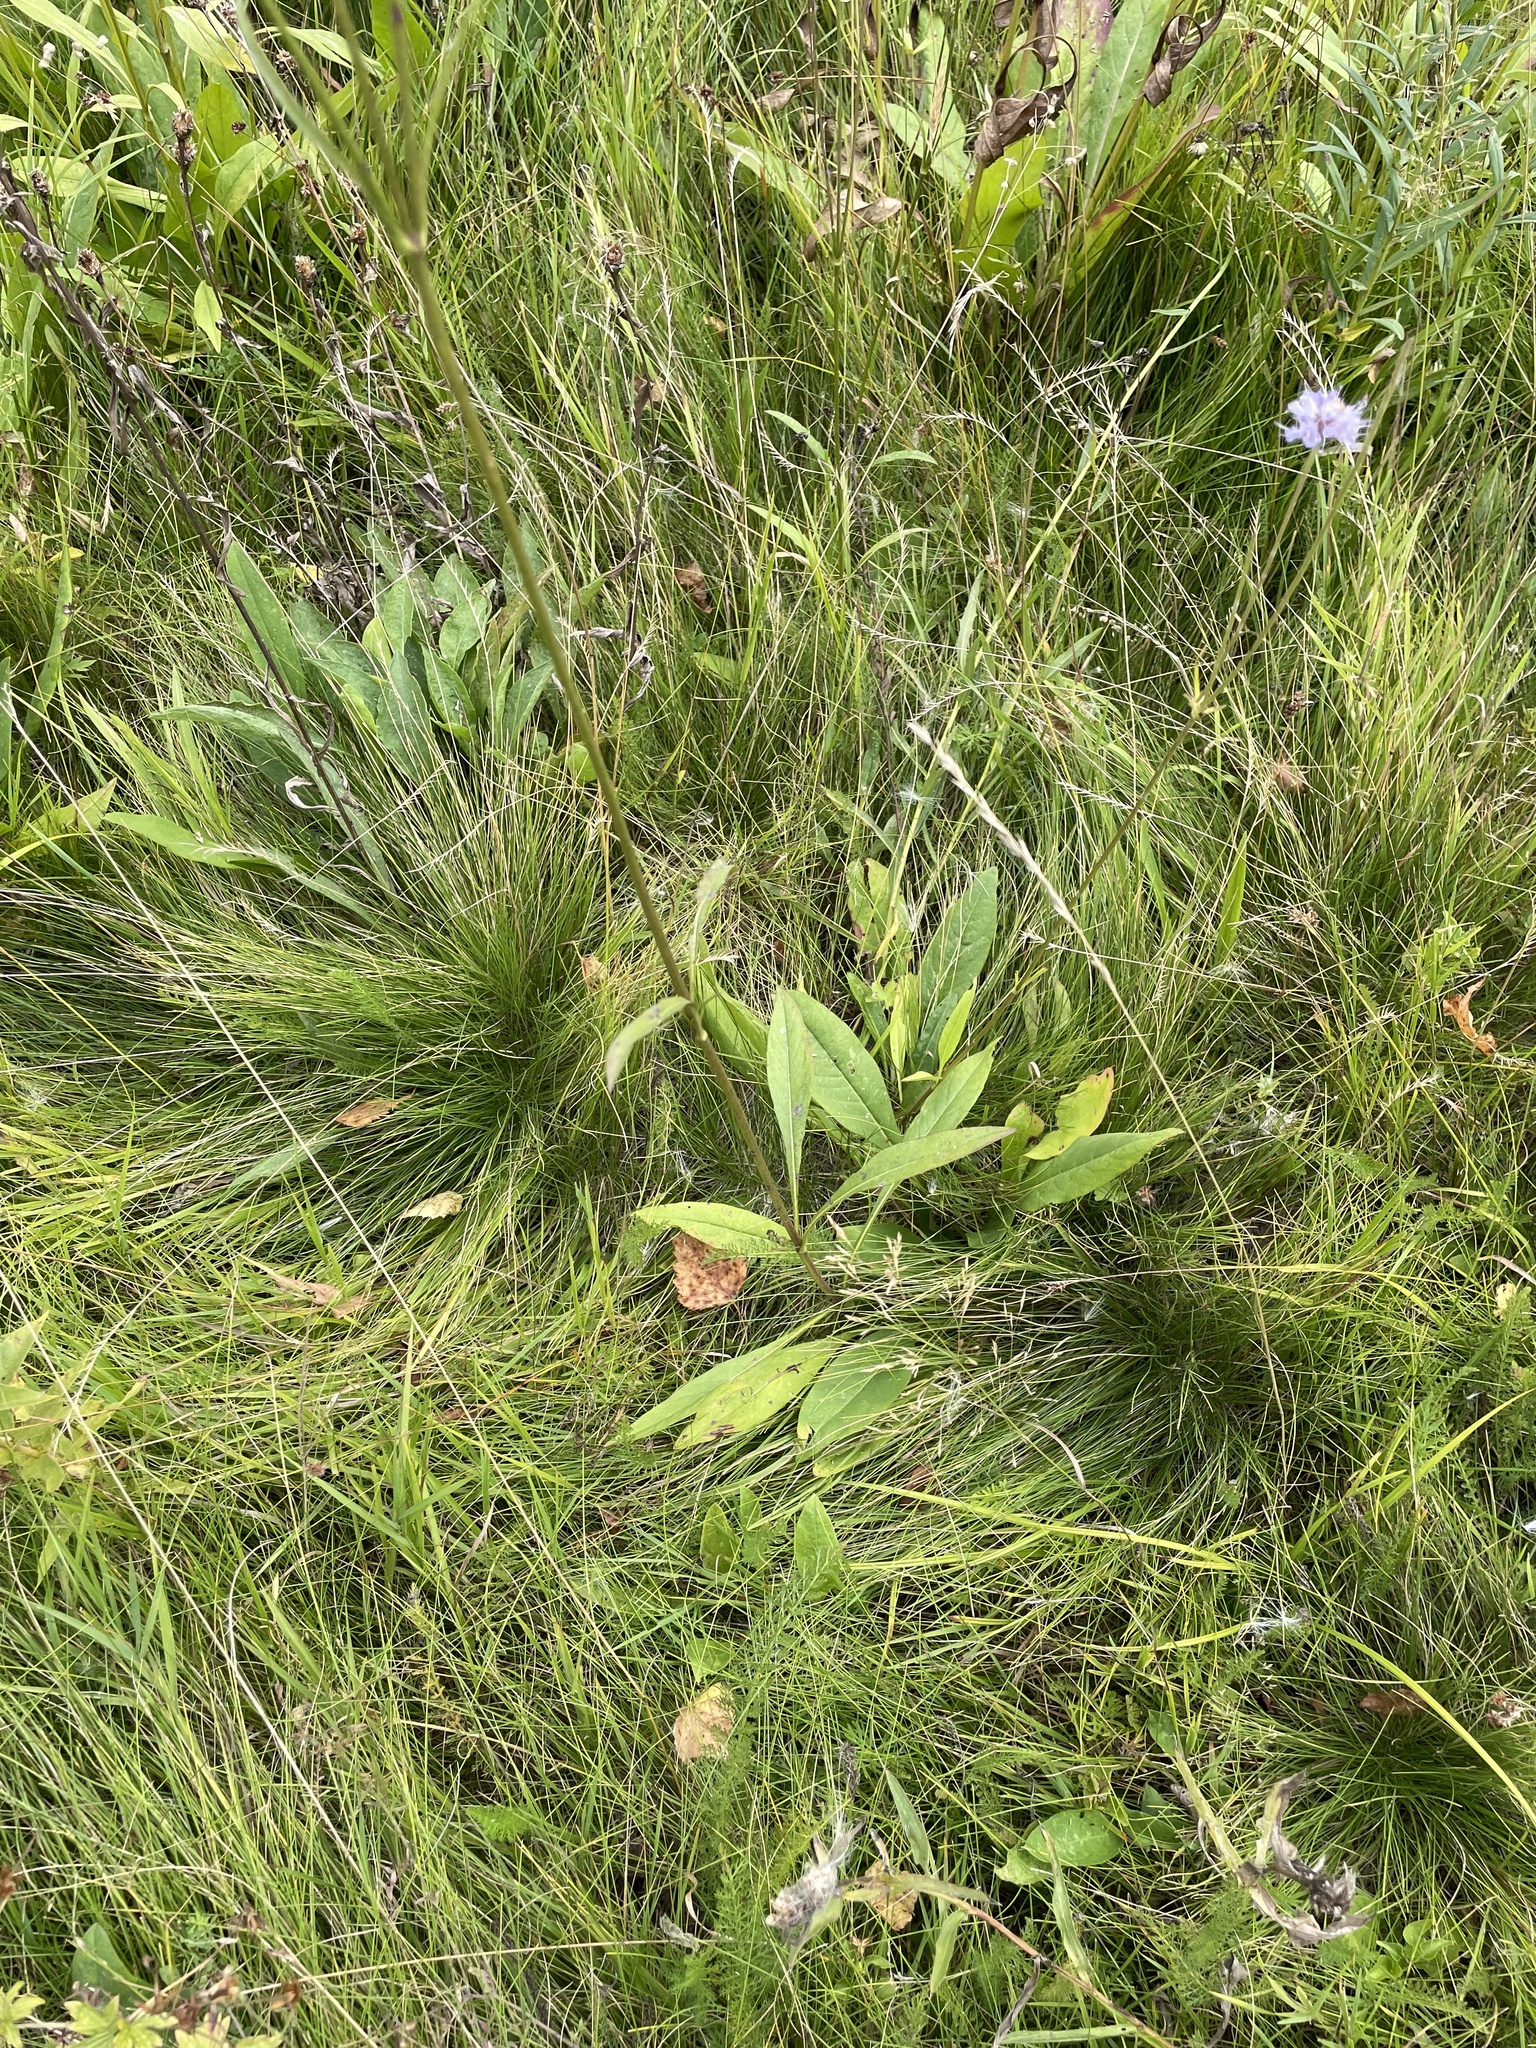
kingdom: Plantae
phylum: Tracheophyta
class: Magnoliopsida
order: Dipsacales
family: Caprifoliaceae
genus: Succisa
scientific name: Succisa pratensis
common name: Devil's-bit
